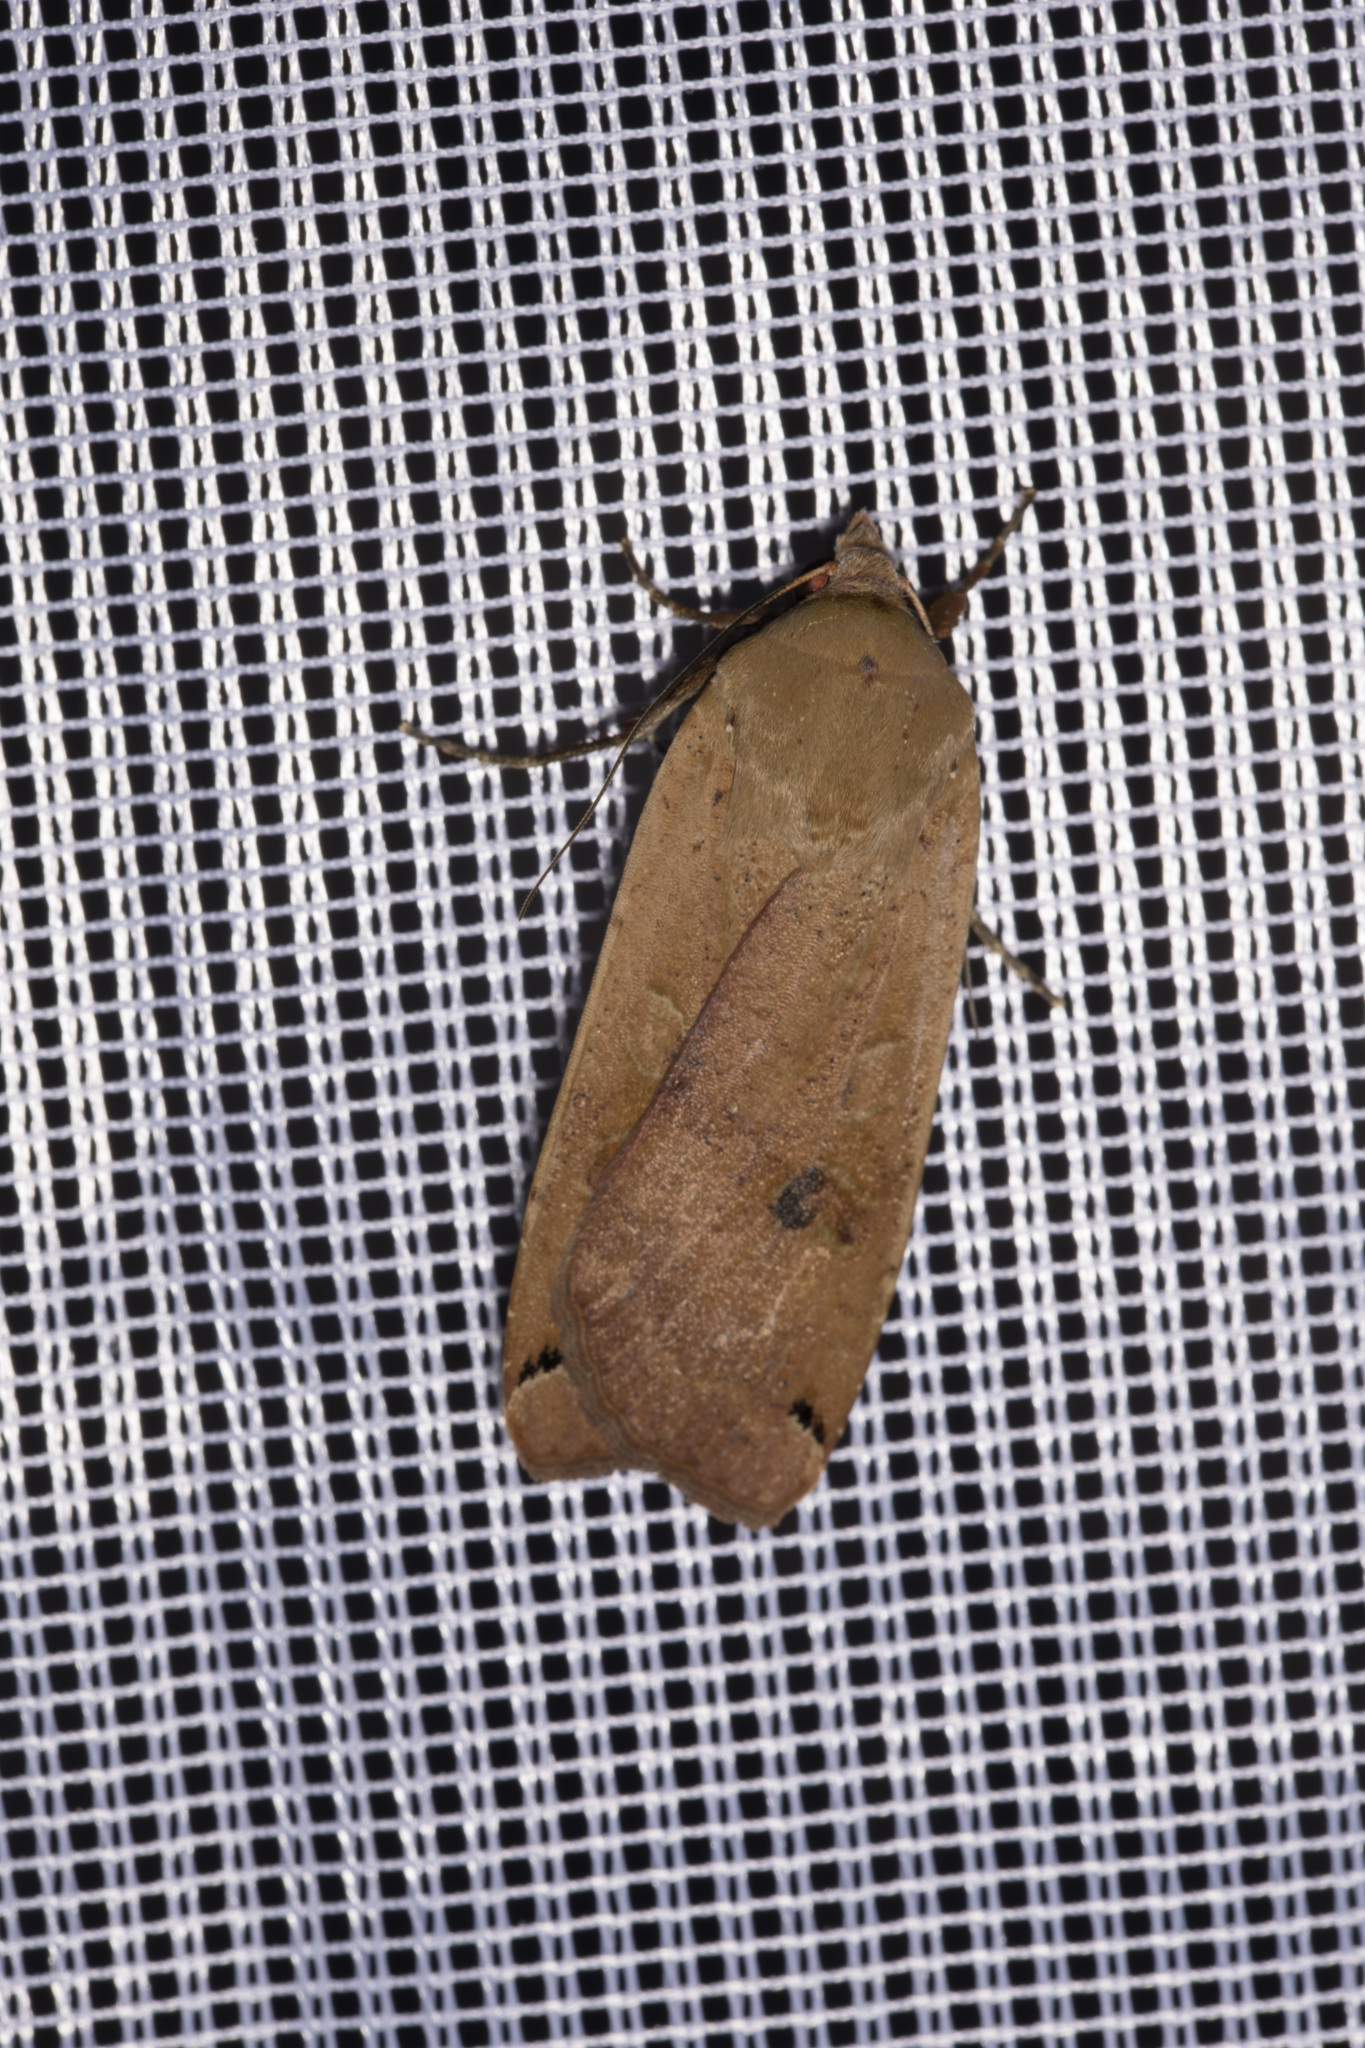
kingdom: Animalia
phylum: Arthropoda
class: Insecta
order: Lepidoptera
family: Noctuidae
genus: Noctua
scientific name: Noctua pronuba
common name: Large yellow underwing
